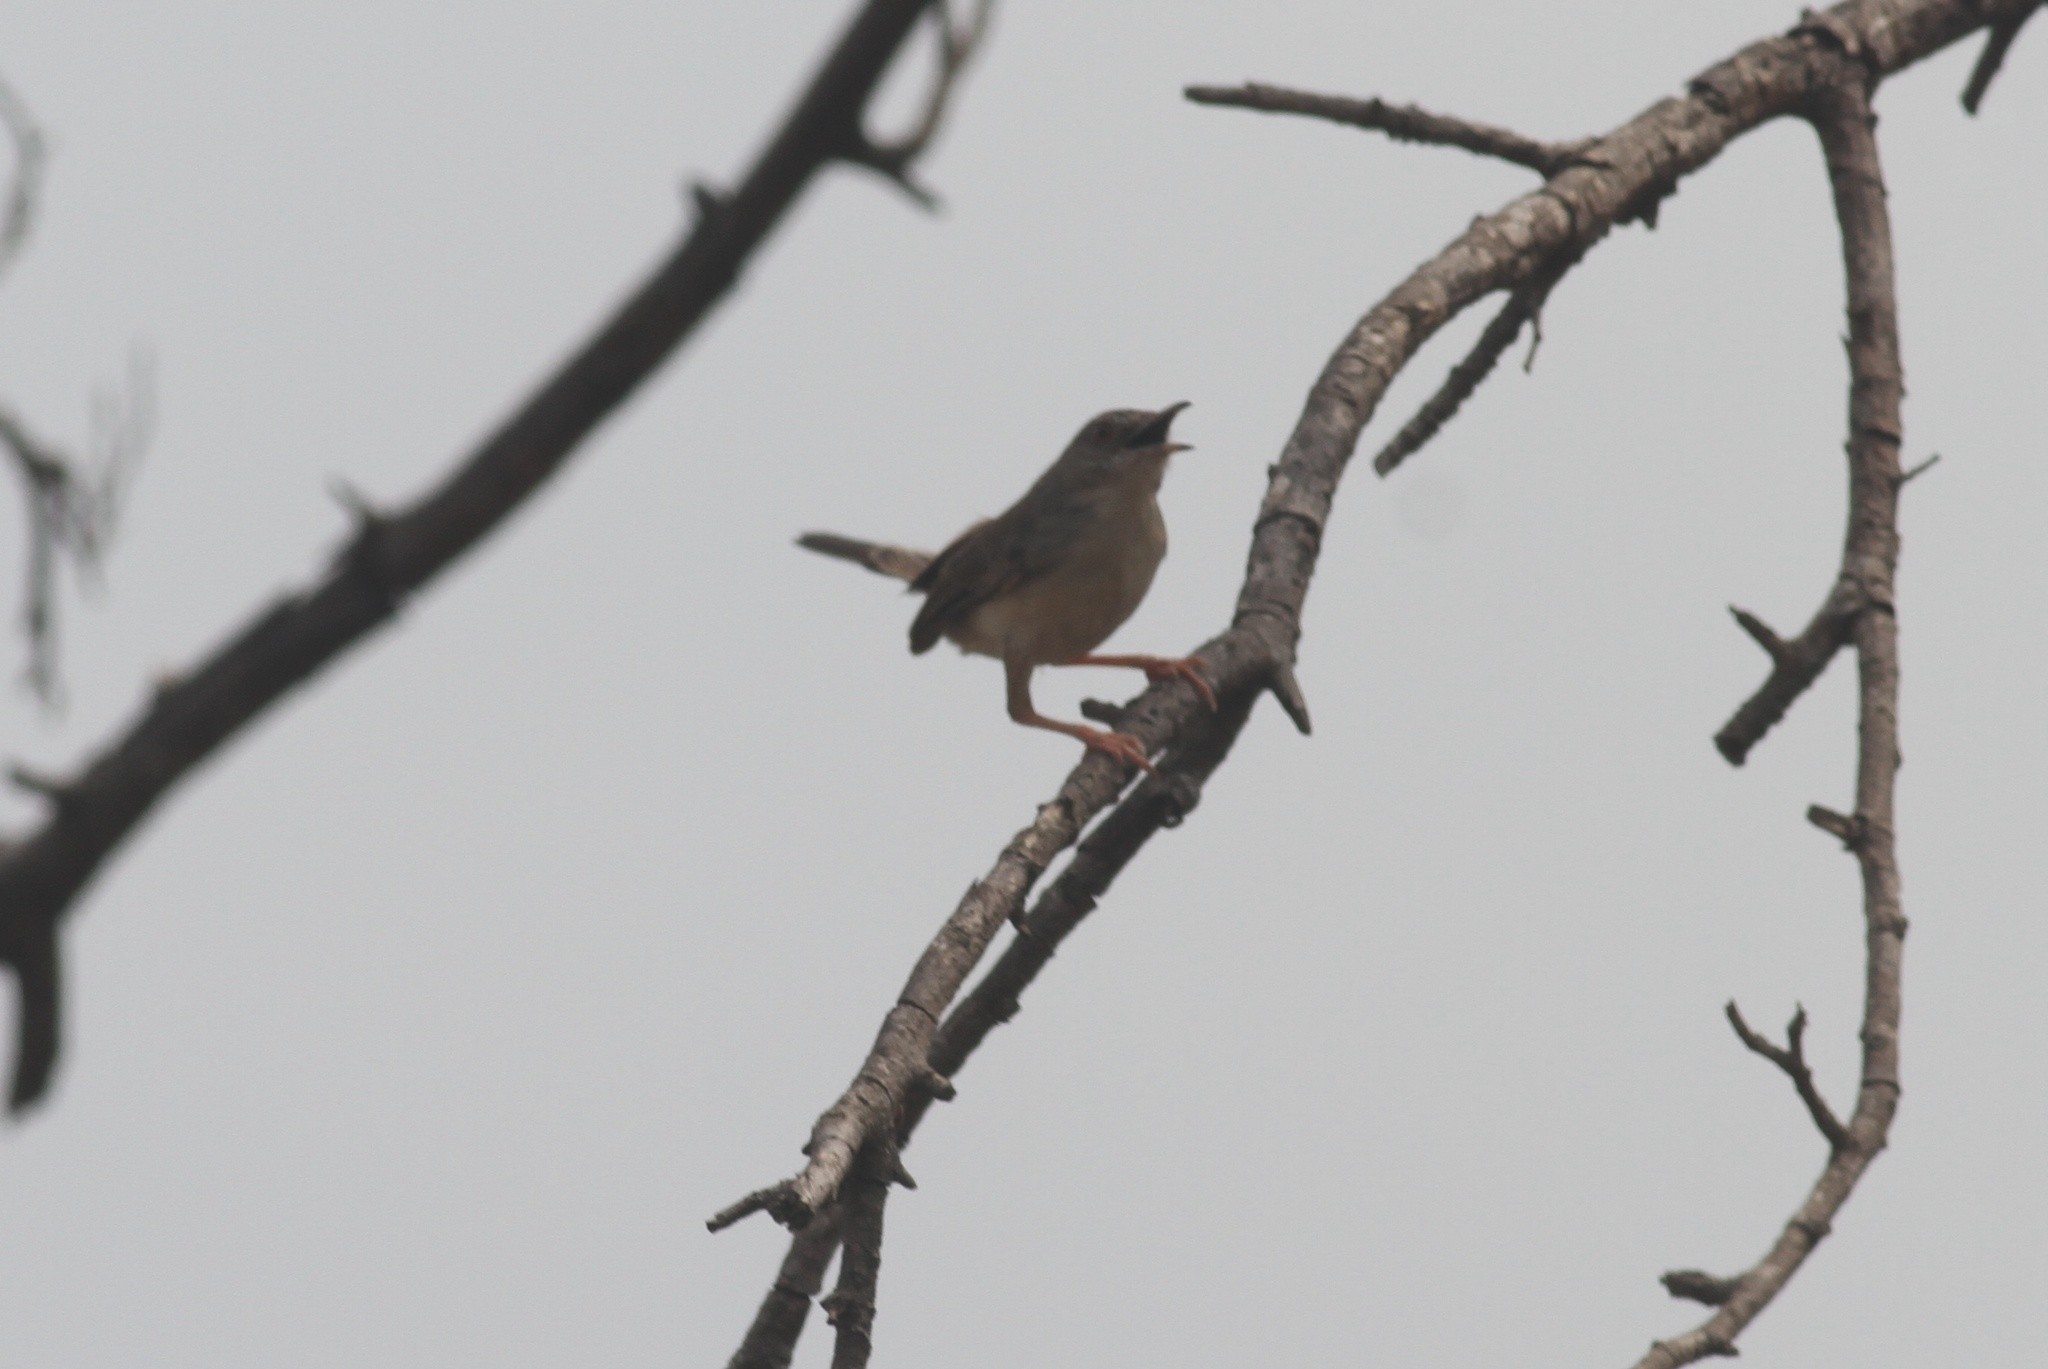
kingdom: Animalia
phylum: Chordata
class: Aves
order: Passeriformes
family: Cisticolidae
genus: Prinia
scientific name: Prinia sylvatica
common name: Jungle prinia
